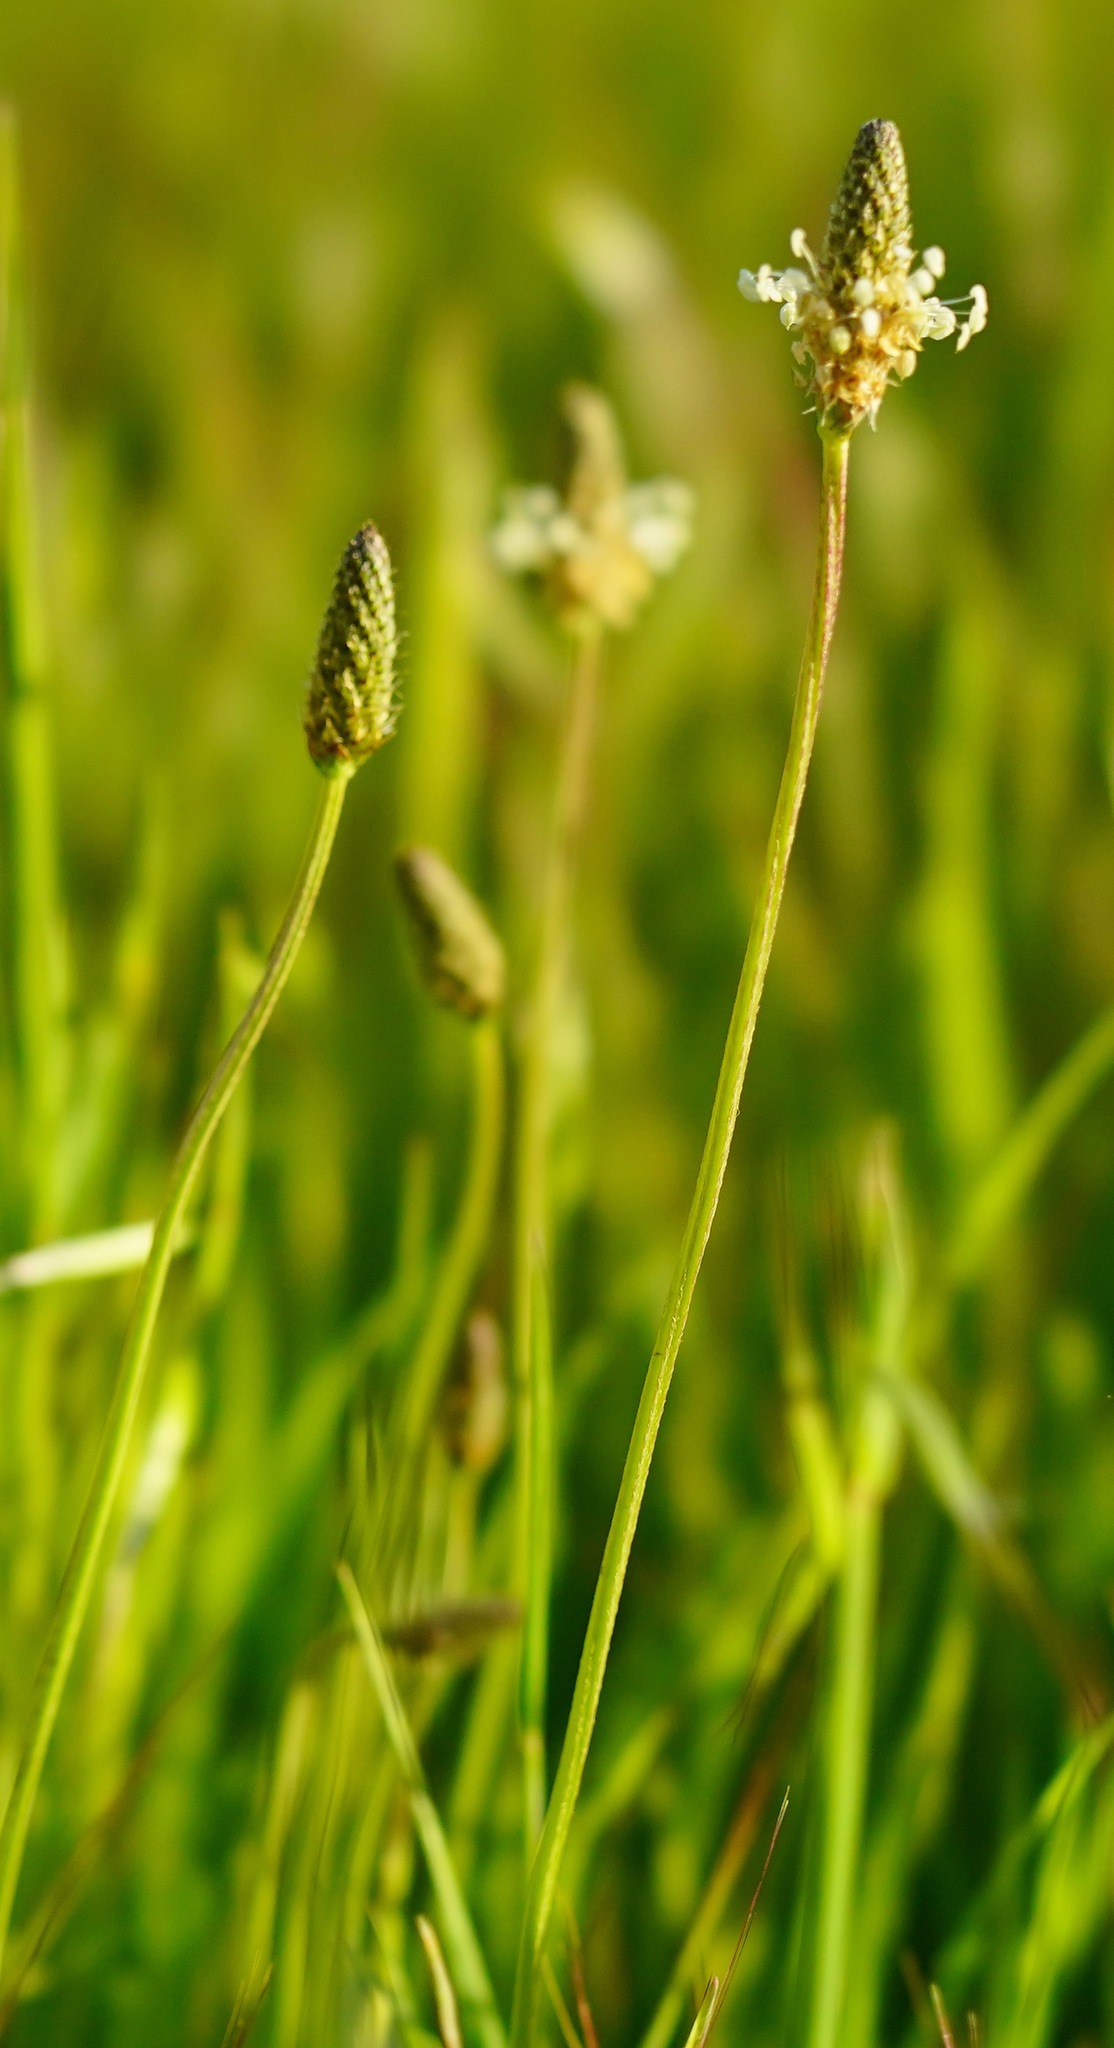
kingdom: Plantae
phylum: Tracheophyta
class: Magnoliopsida
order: Lamiales
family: Plantaginaceae
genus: Plantago
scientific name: Plantago lanceolata
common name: Ribwort plantain
